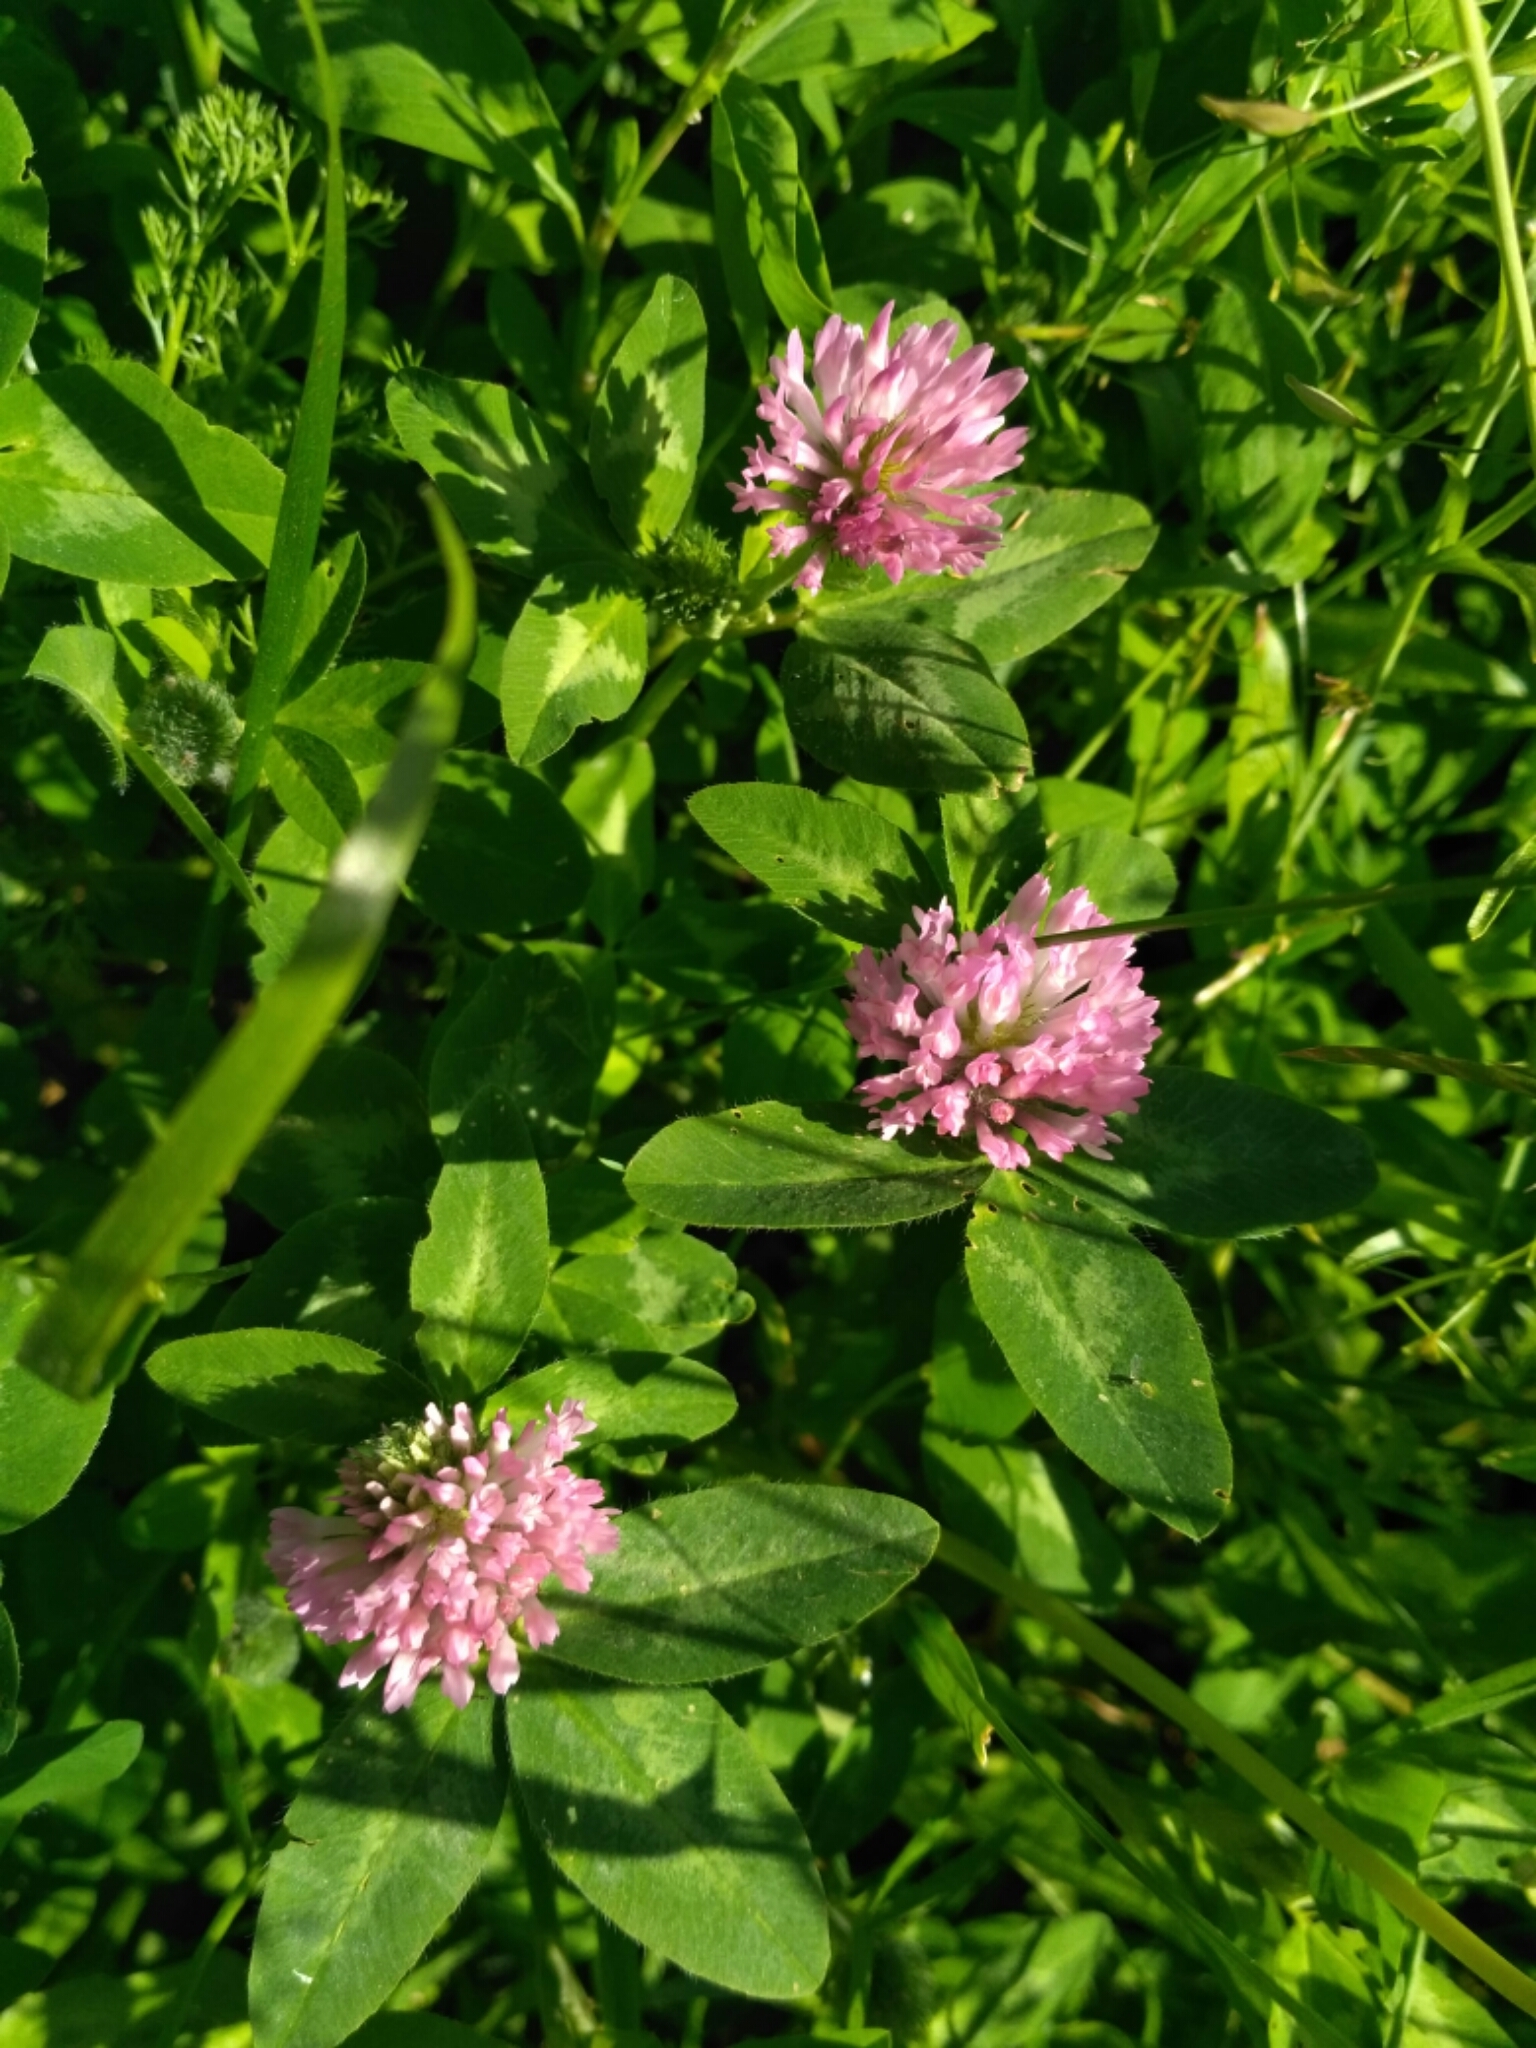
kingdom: Plantae
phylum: Tracheophyta
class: Magnoliopsida
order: Fabales
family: Fabaceae
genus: Trifolium
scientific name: Trifolium pratense
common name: Red clover
